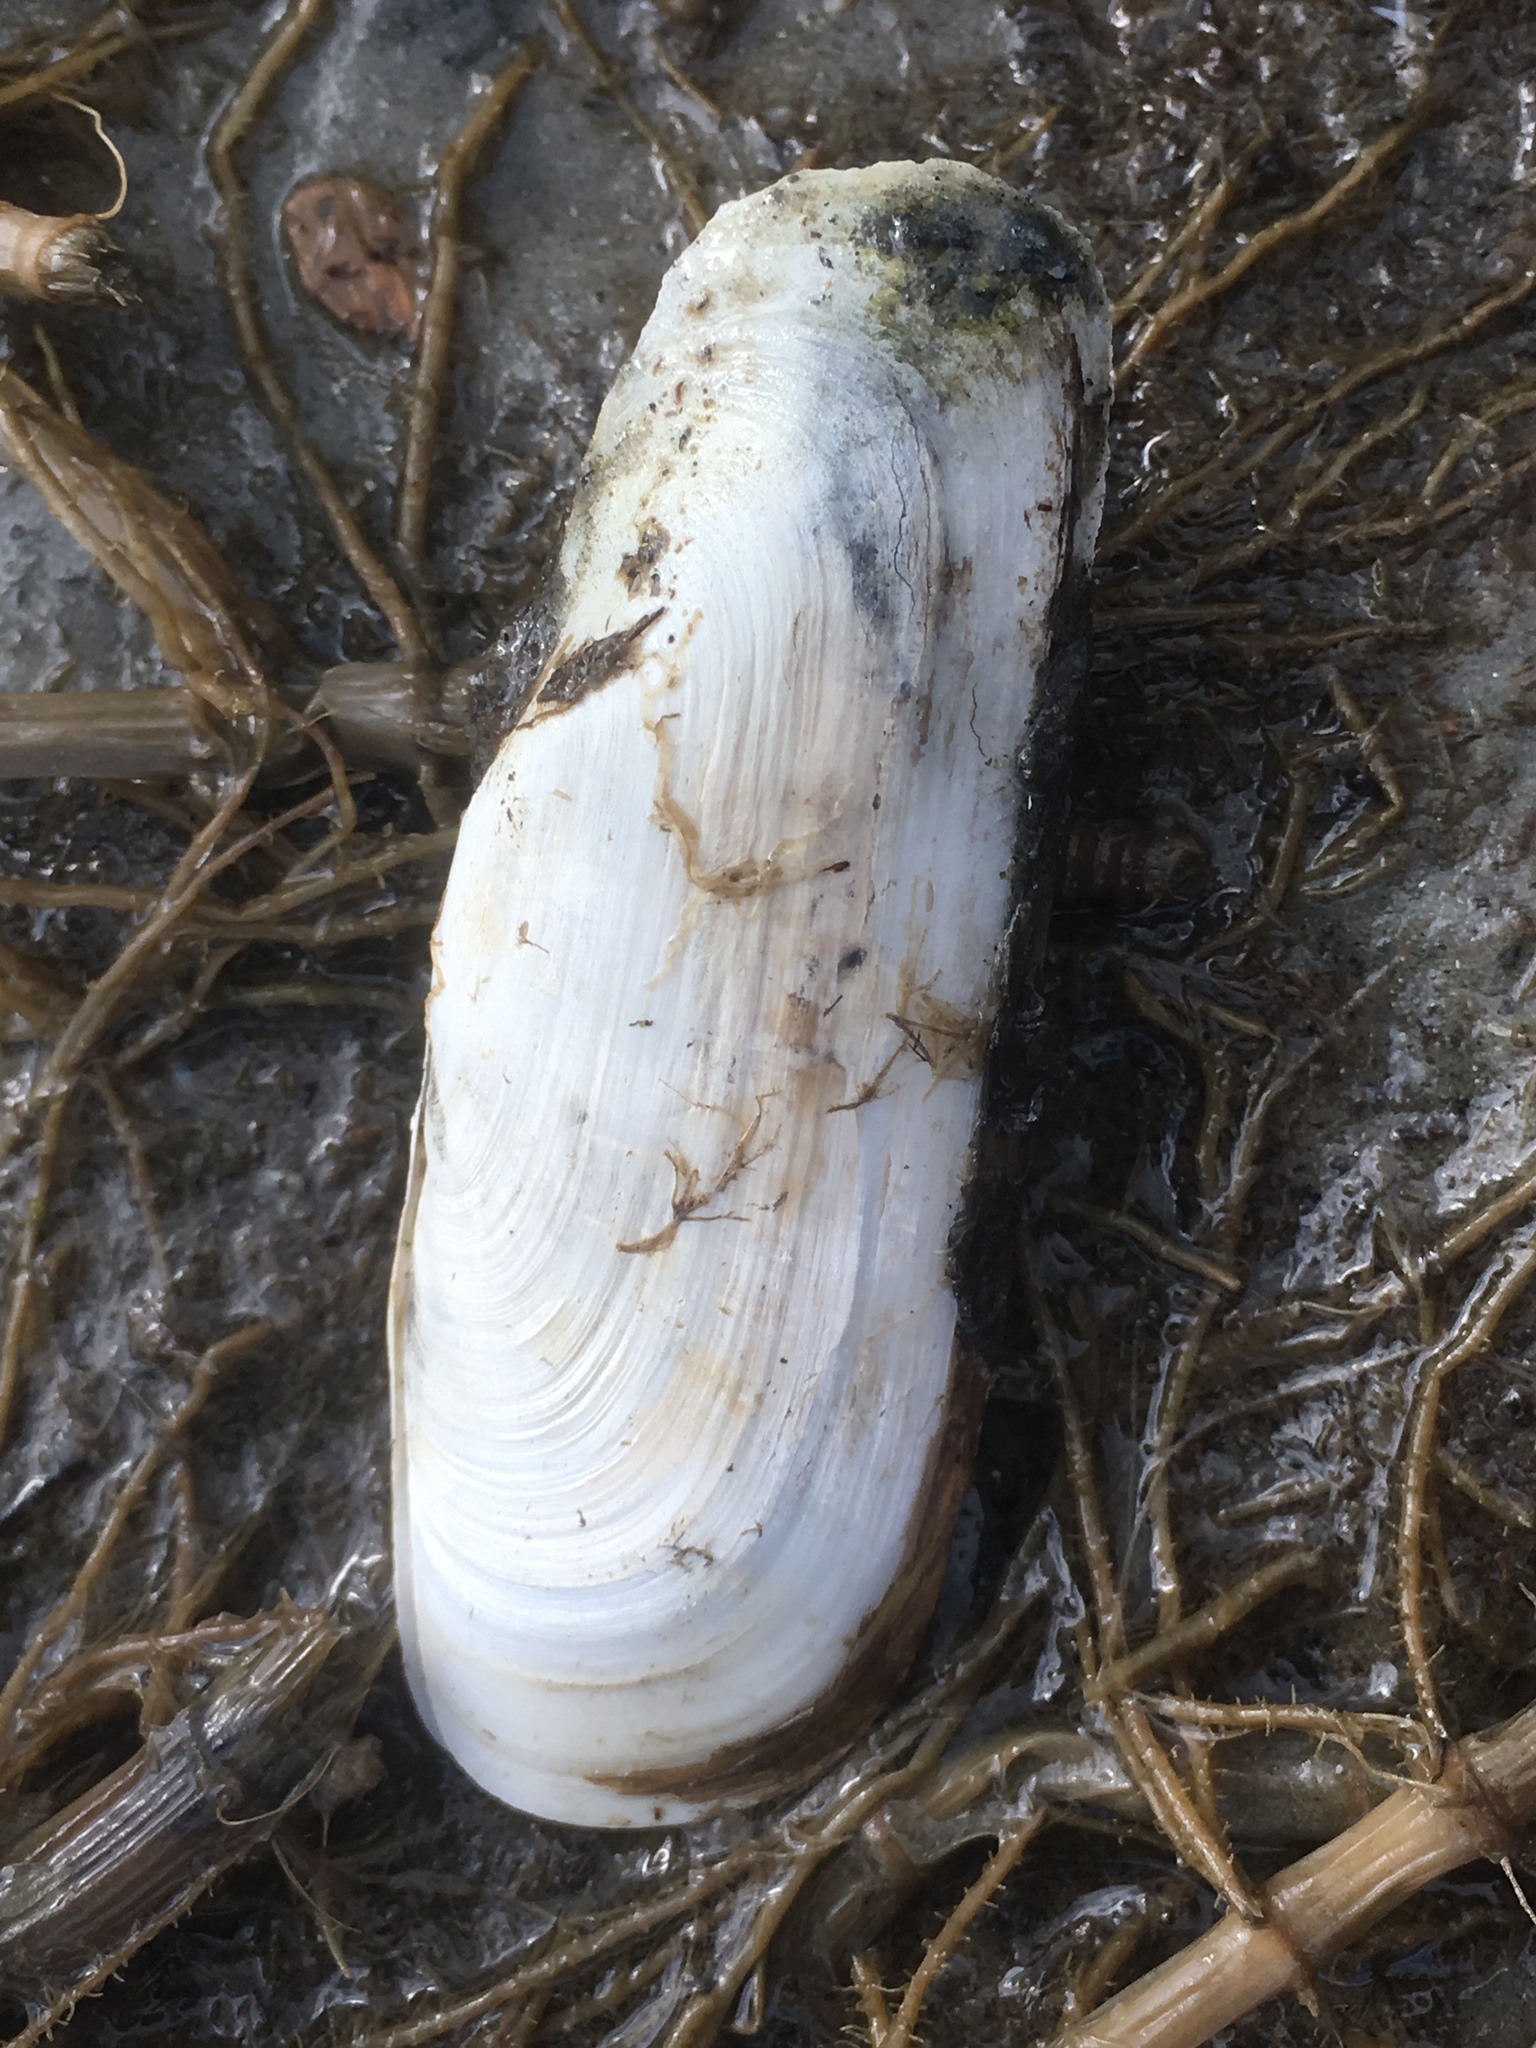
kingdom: Animalia
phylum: Mollusca
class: Bivalvia
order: Cardiida
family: Solecurtidae
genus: Tagelus
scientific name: Tagelus plebeius
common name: Stout tagelus
